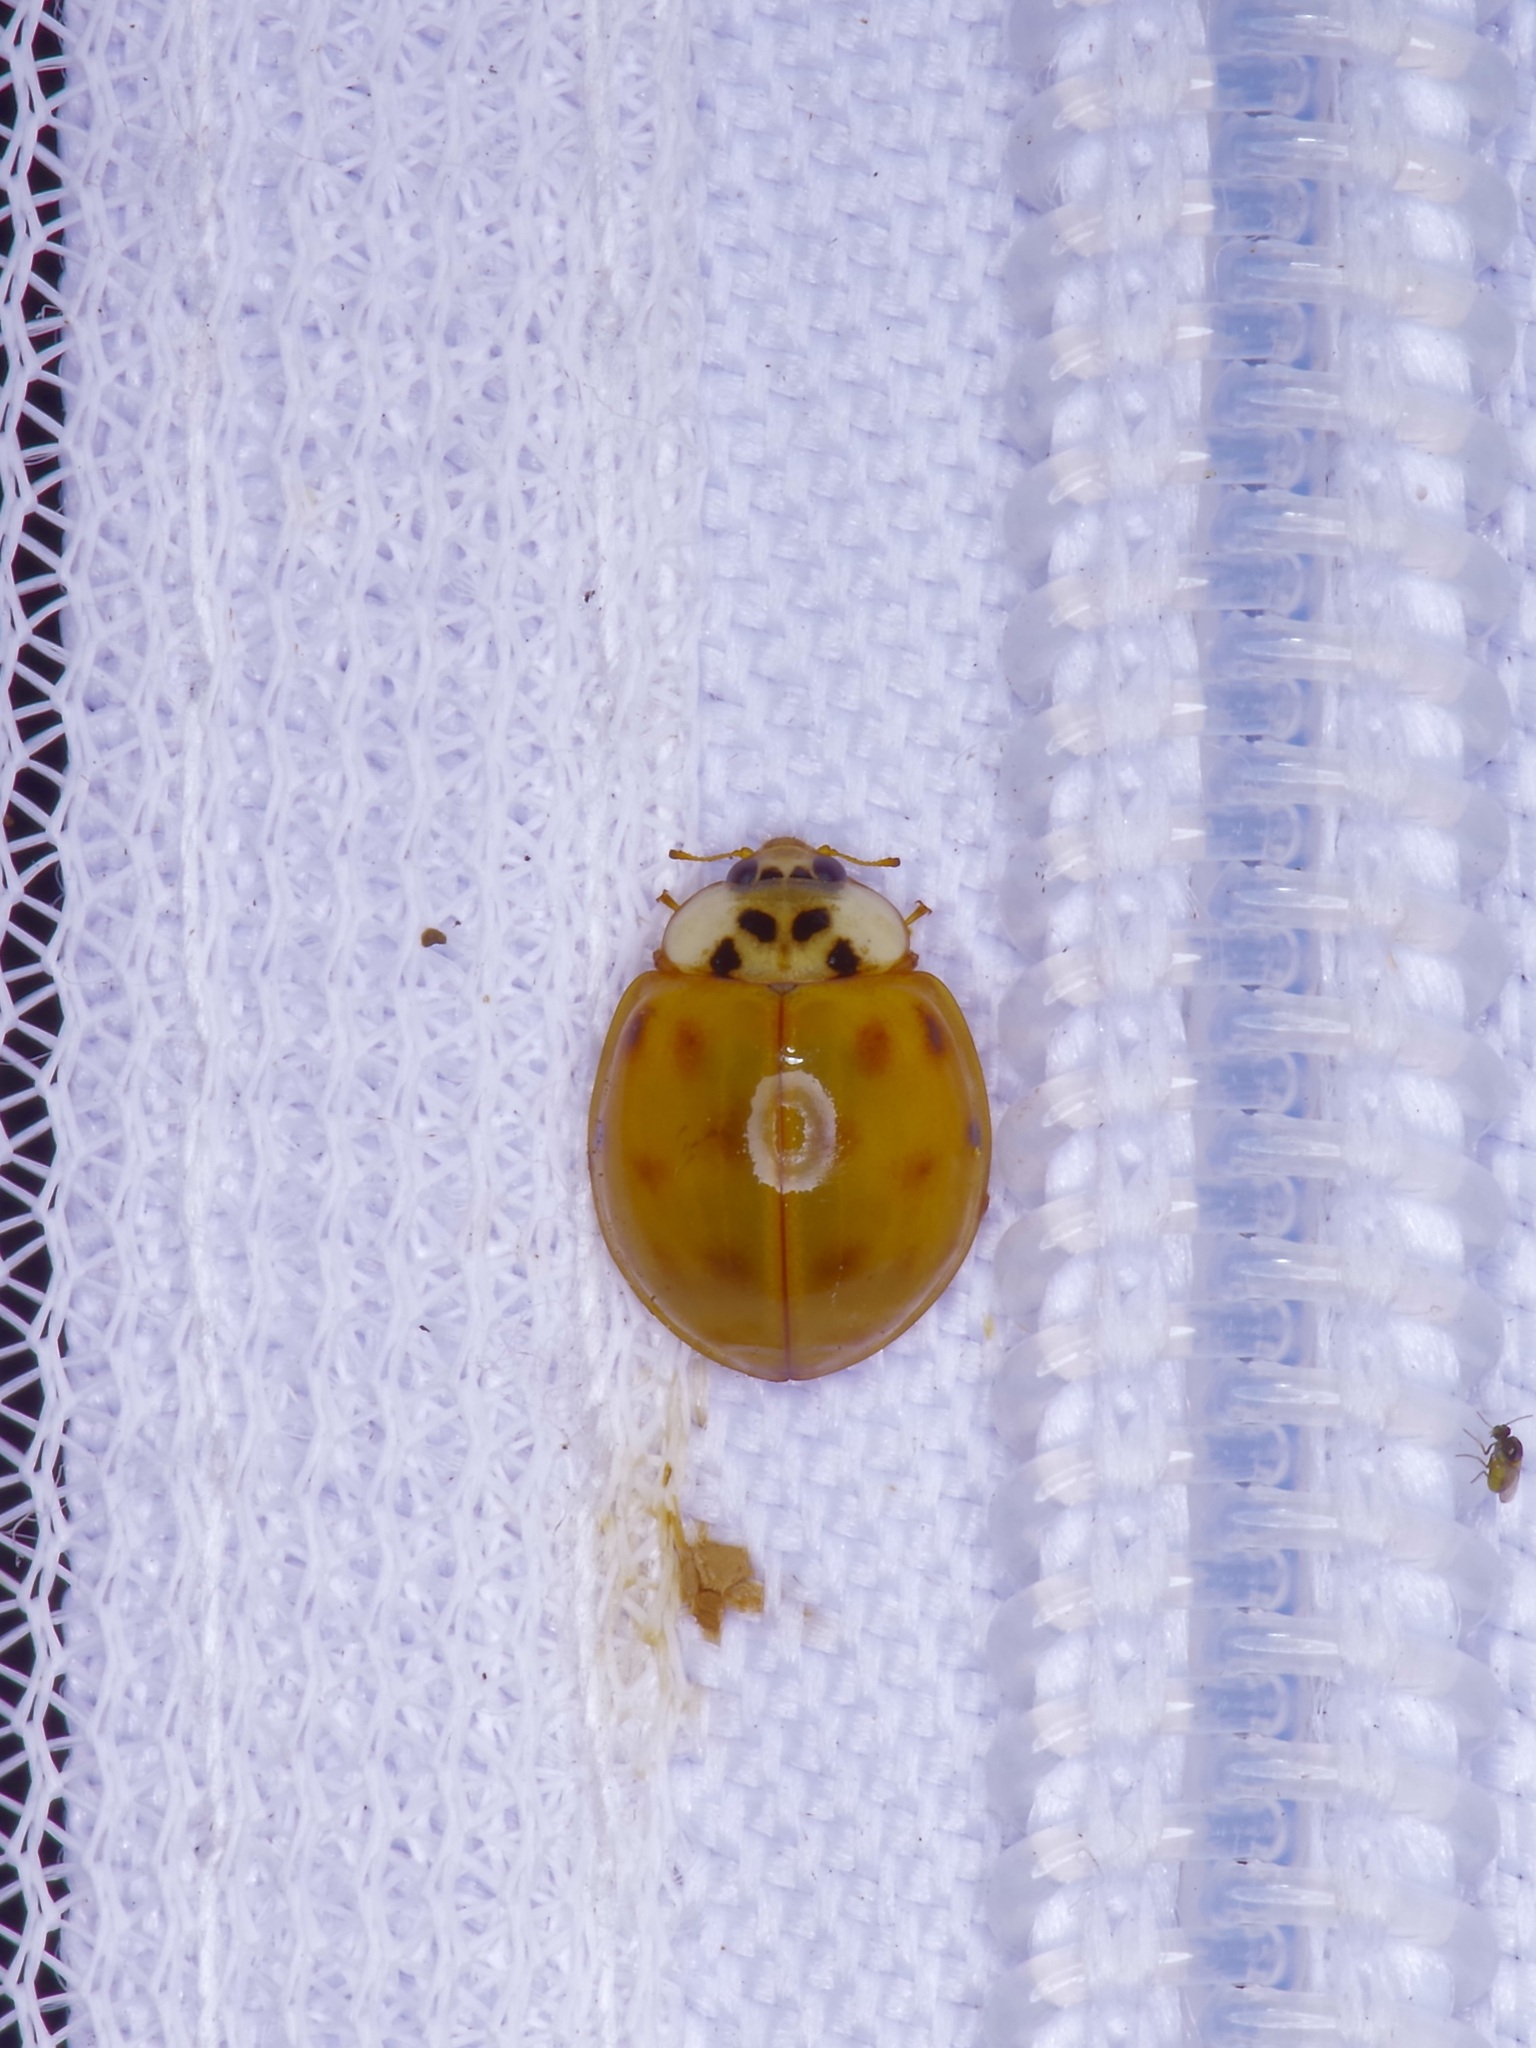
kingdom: Animalia
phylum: Arthropoda
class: Insecta
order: Coleoptera
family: Coccinellidae
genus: Harmonia
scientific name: Harmonia axyridis
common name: Harlequin ladybird
